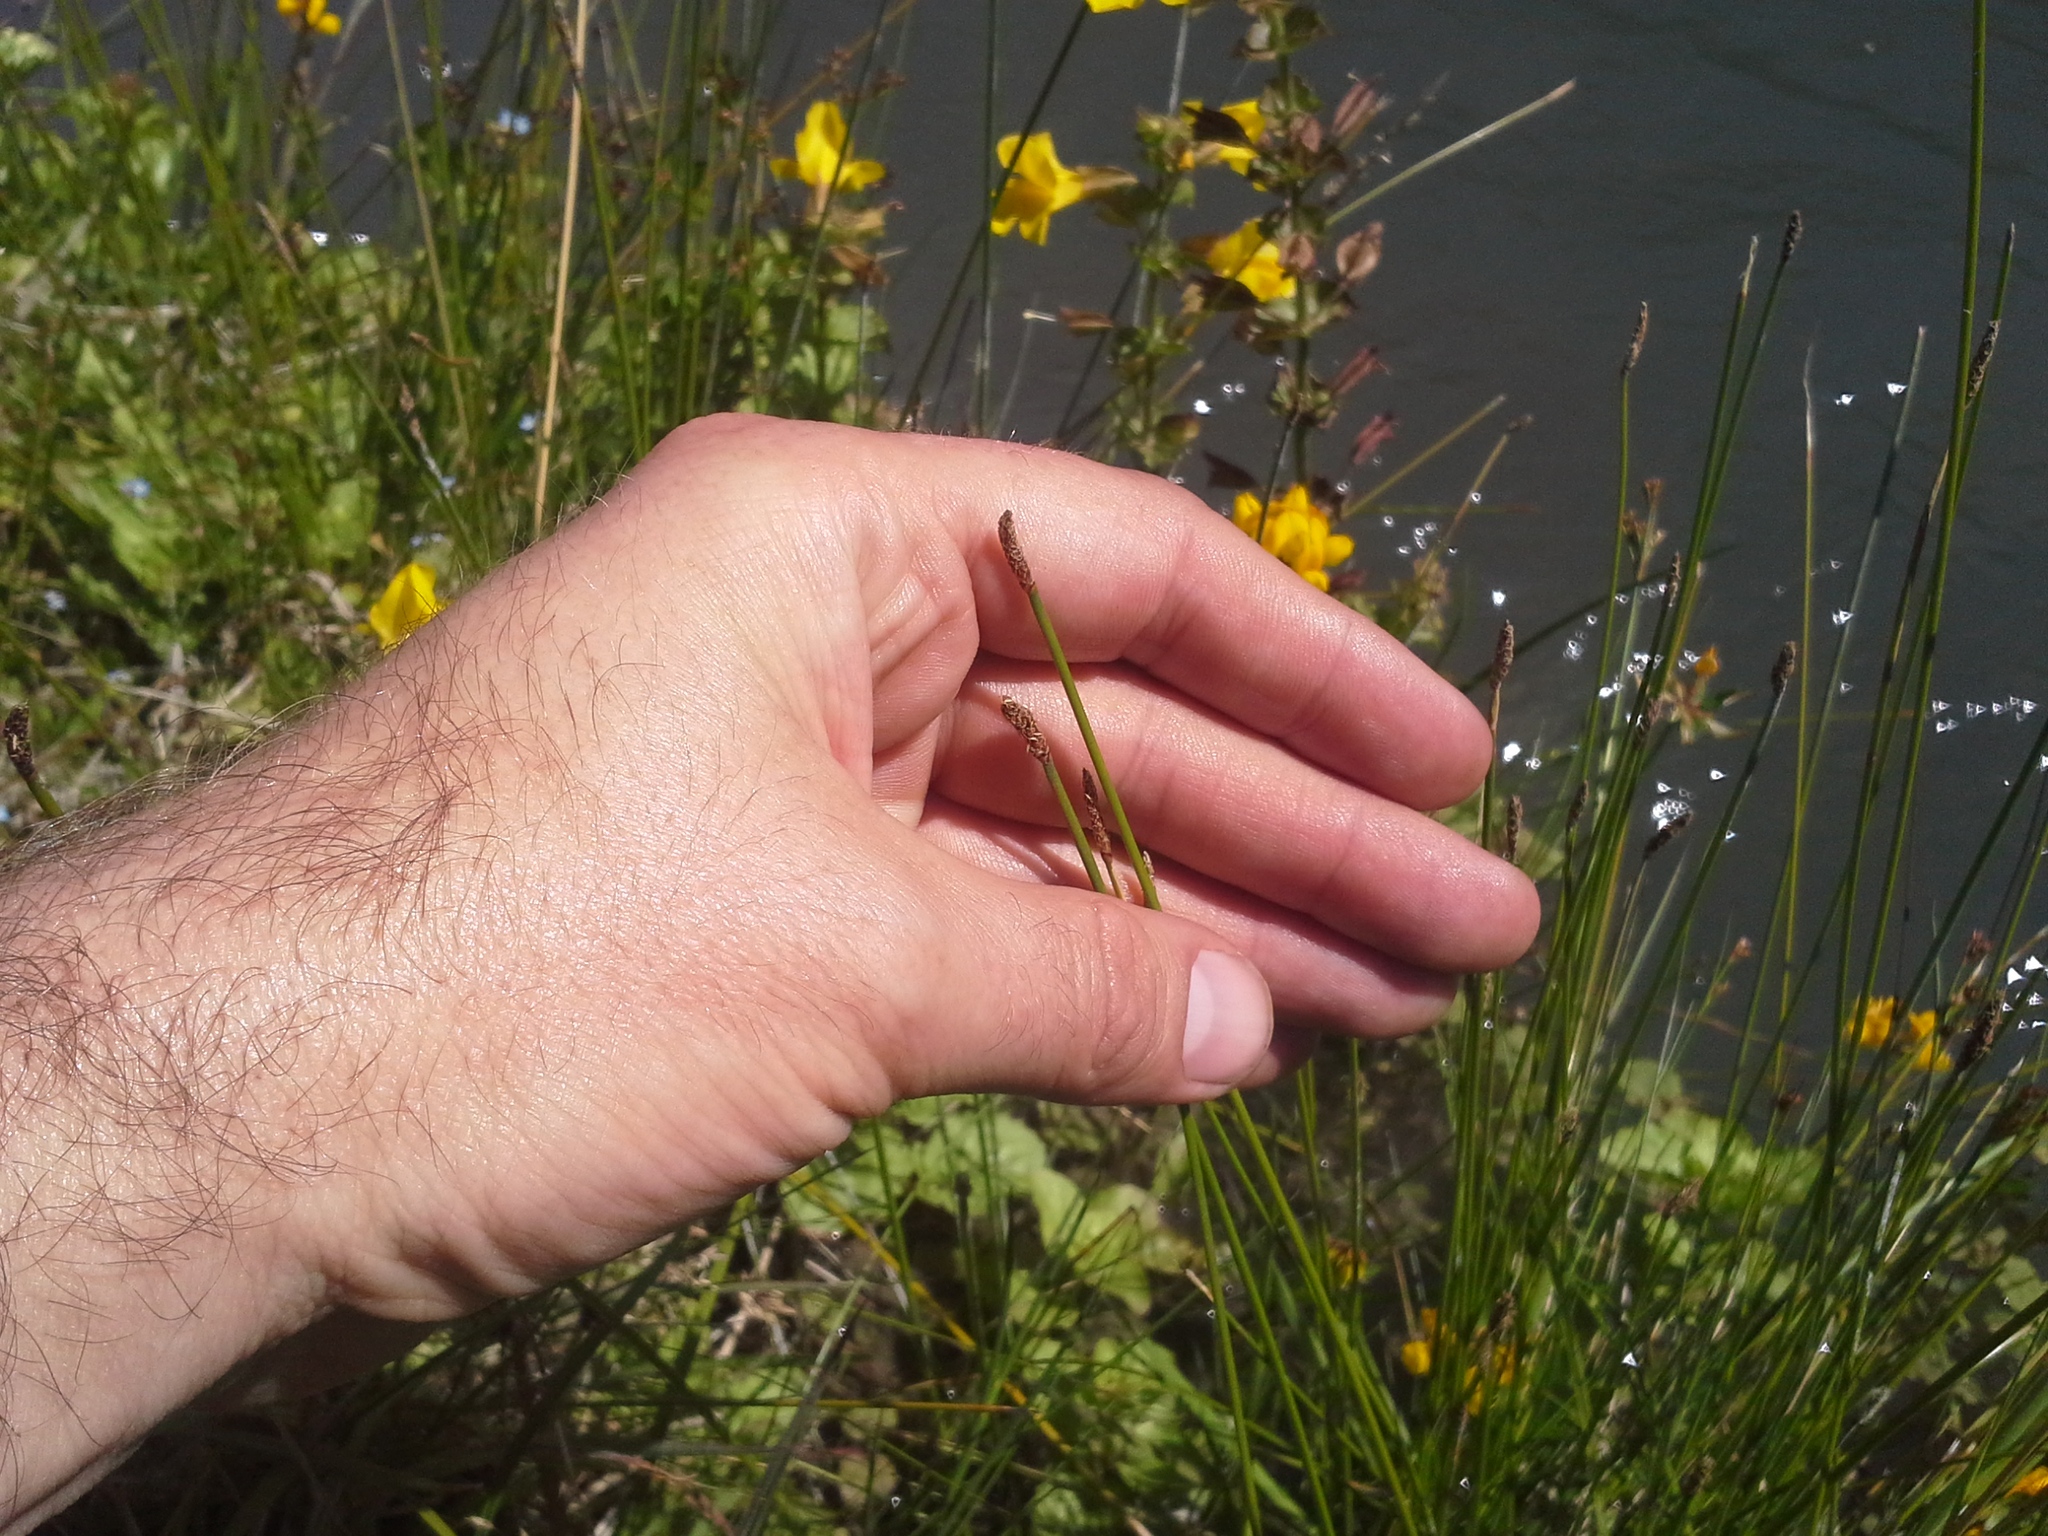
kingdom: Plantae
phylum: Tracheophyta
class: Liliopsida
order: Poales
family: Cyperaceae
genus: Eleocharis
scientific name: Eleocharis acuta
